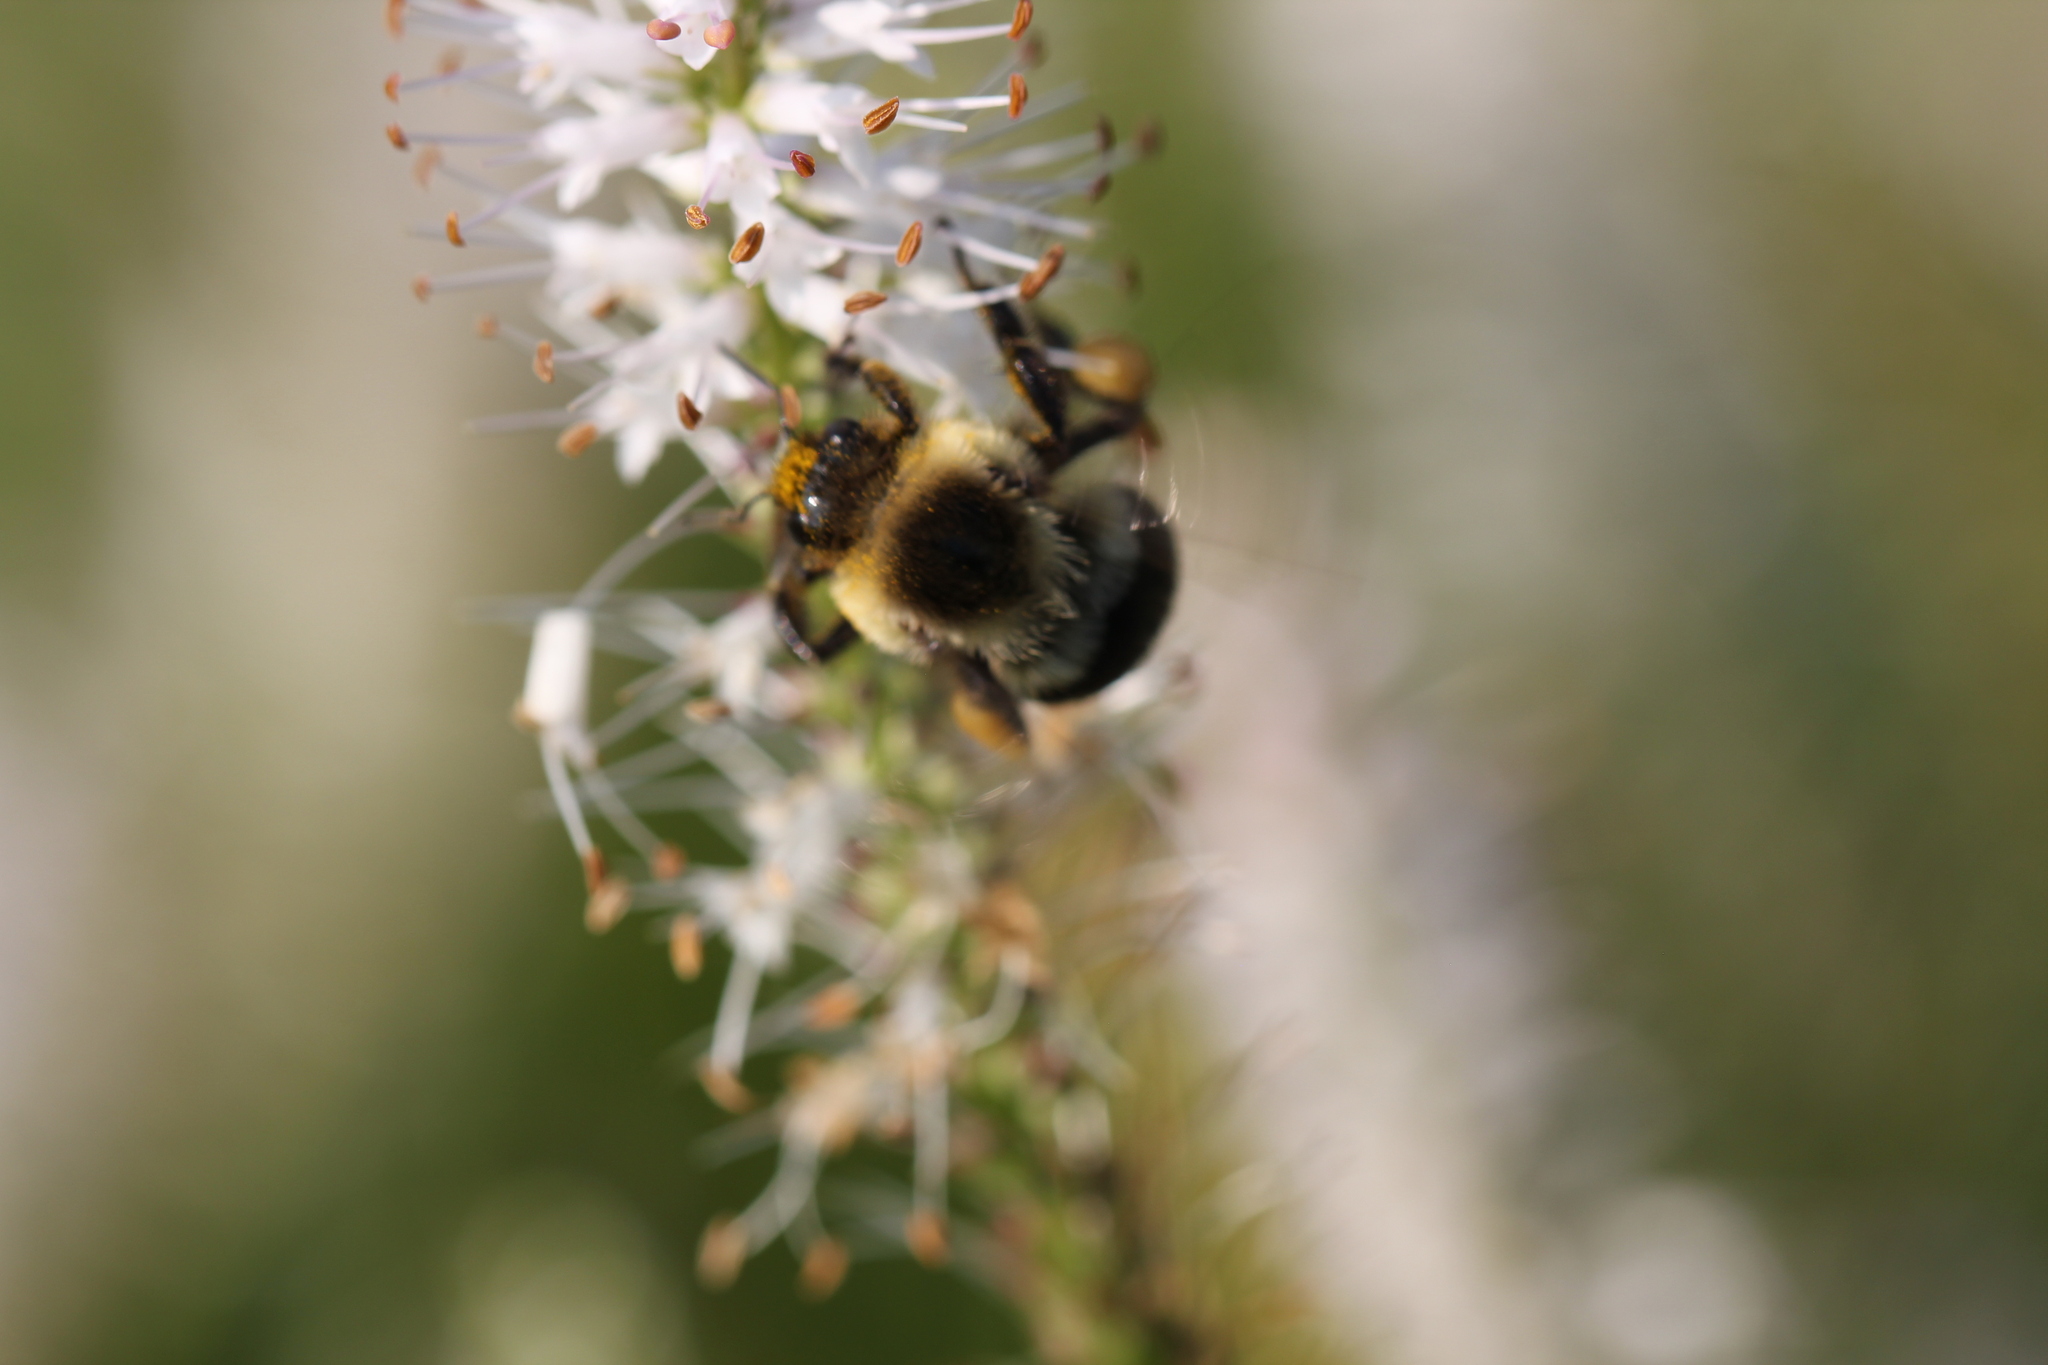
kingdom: Animalia
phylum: Arthropoda
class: Insecta
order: Hymenoptera
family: Apidae
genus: Bombus
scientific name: Bombus impatiens
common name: Common eastern bumble bee
